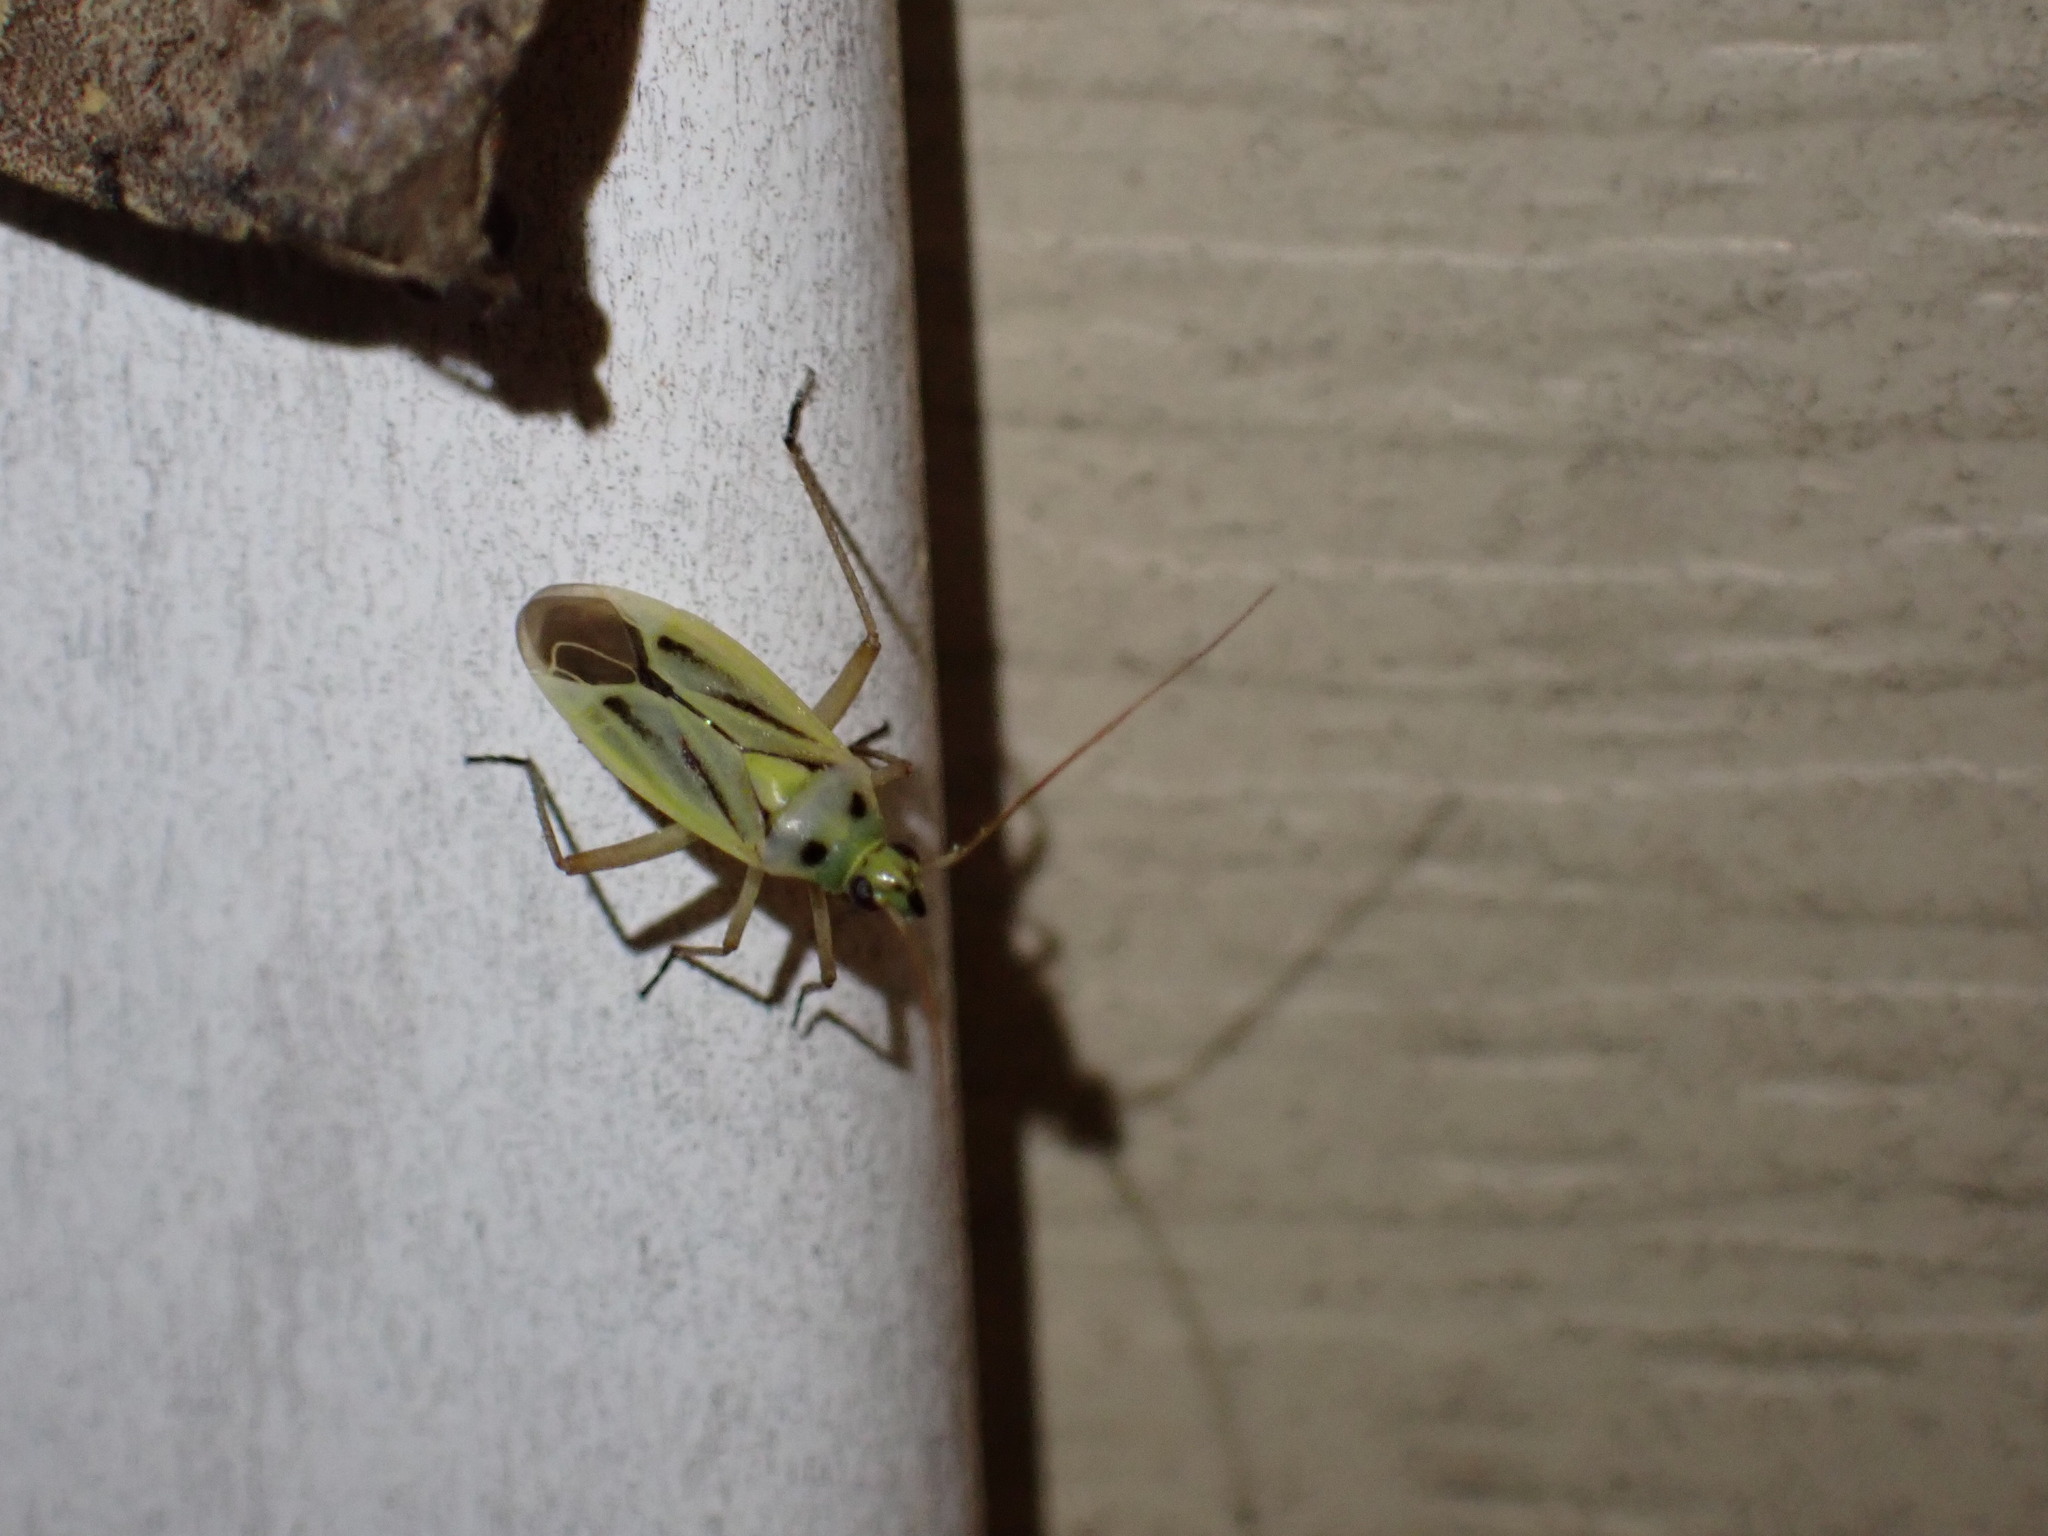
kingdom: Animalia
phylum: Arthropoda
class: Insecta
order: Hemiptera
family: Miridae
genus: Stenotus
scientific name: Stenotus binotatus
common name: Plant bug
